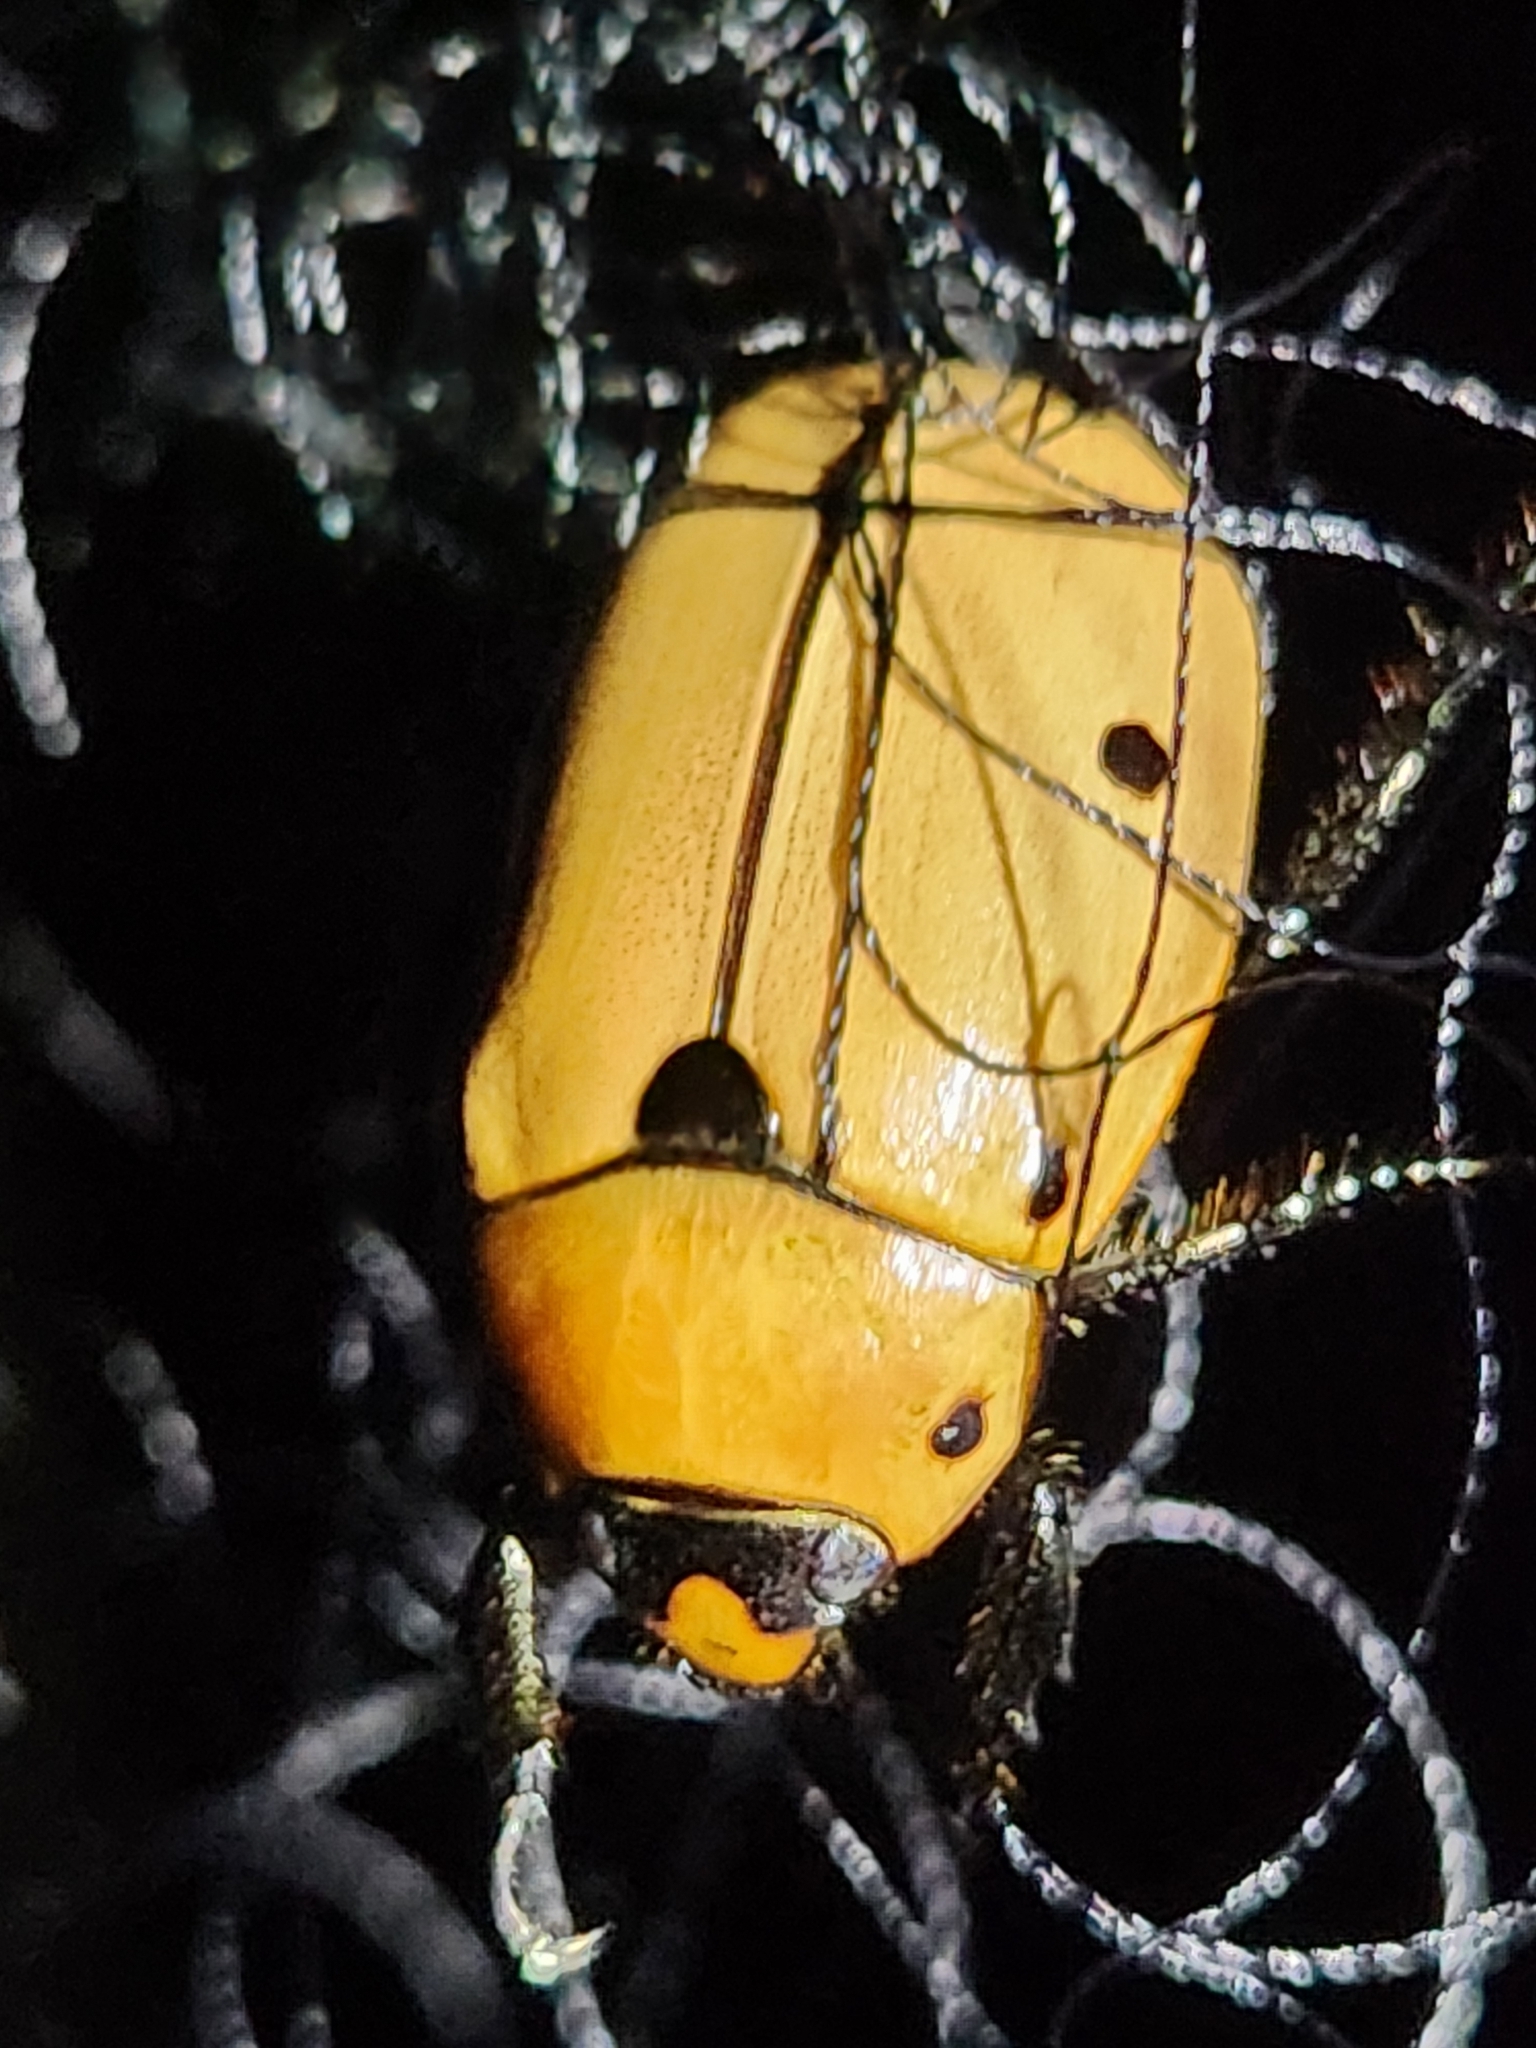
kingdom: Animalia
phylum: Arthropoda
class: Insecta
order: Coleoptera
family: Scarabaeidae
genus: Pelidnota
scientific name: Pelidnota punctata
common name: Grapevine beetle
